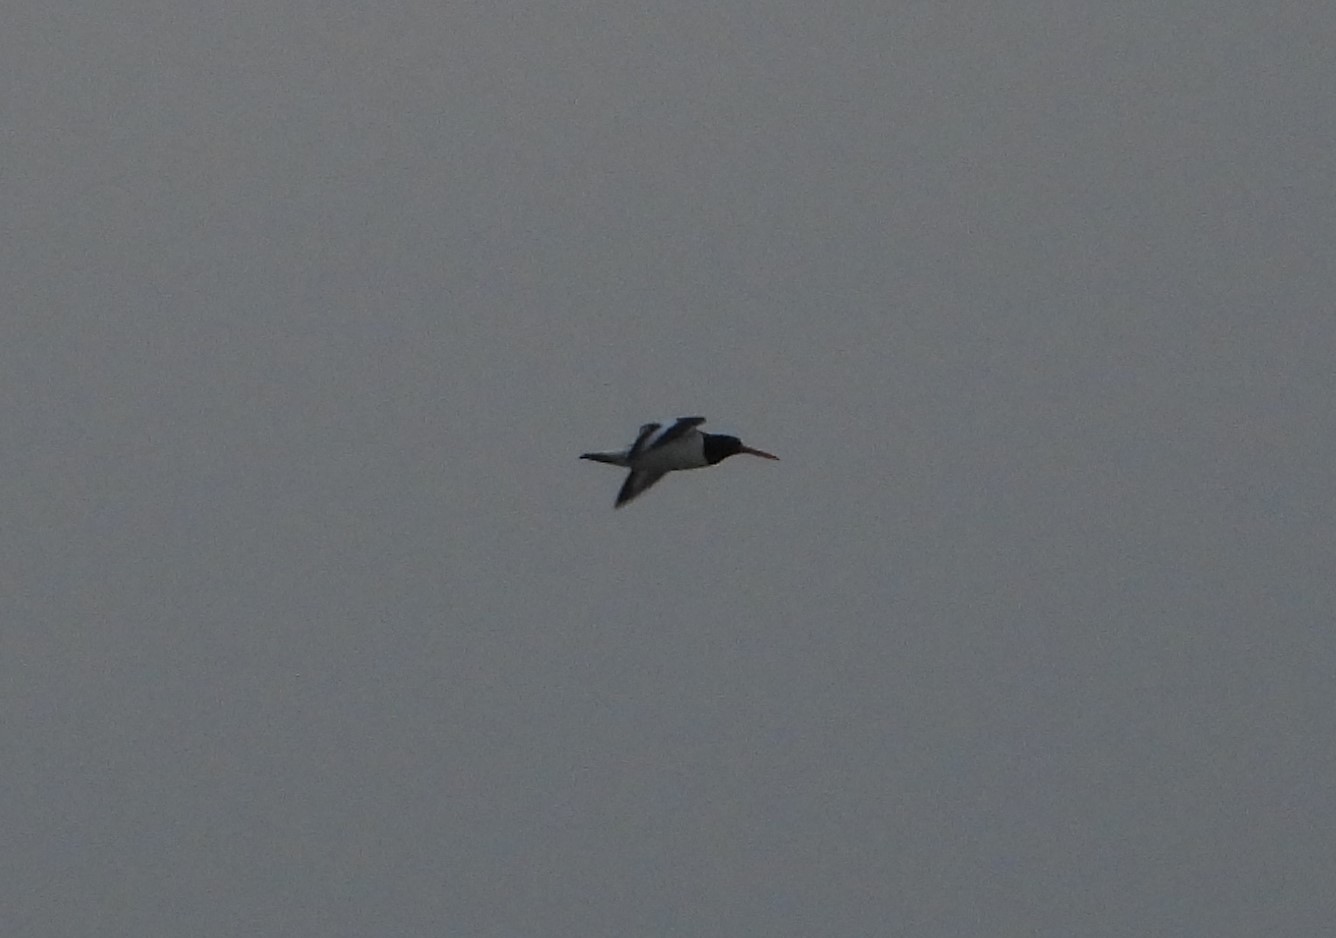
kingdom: Animalia
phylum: Chordata
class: Aves
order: Charadriiformes
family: Haematopodidae
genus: Haematopus
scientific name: Haematopus ostralegus
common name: Eurasian oystercatcher
